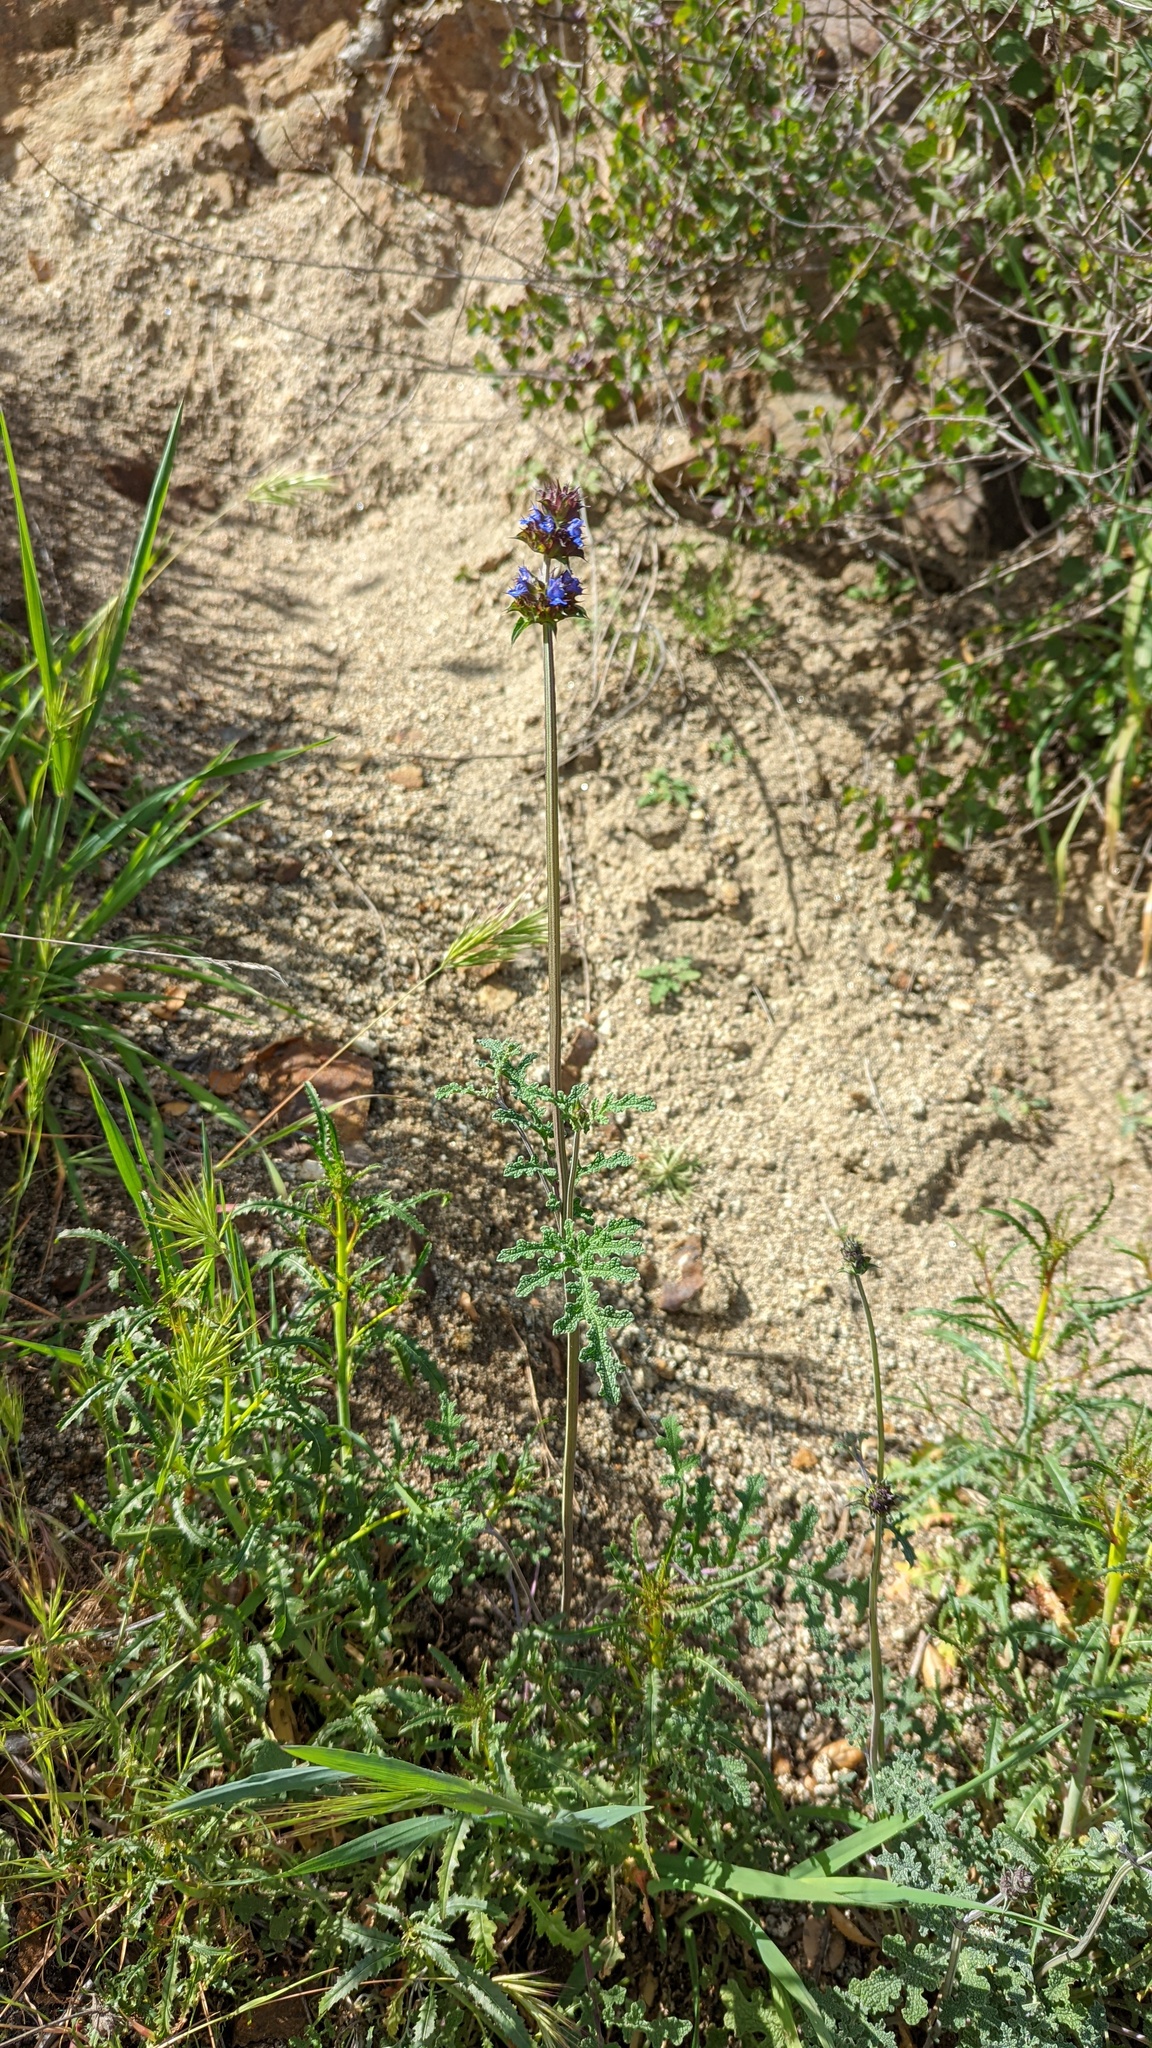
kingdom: Plantae
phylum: Tracheophyta
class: Magnoliopsida
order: Lamiales
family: Lamiaceae
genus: Salvia
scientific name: Salvia columbariae
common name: Chia
